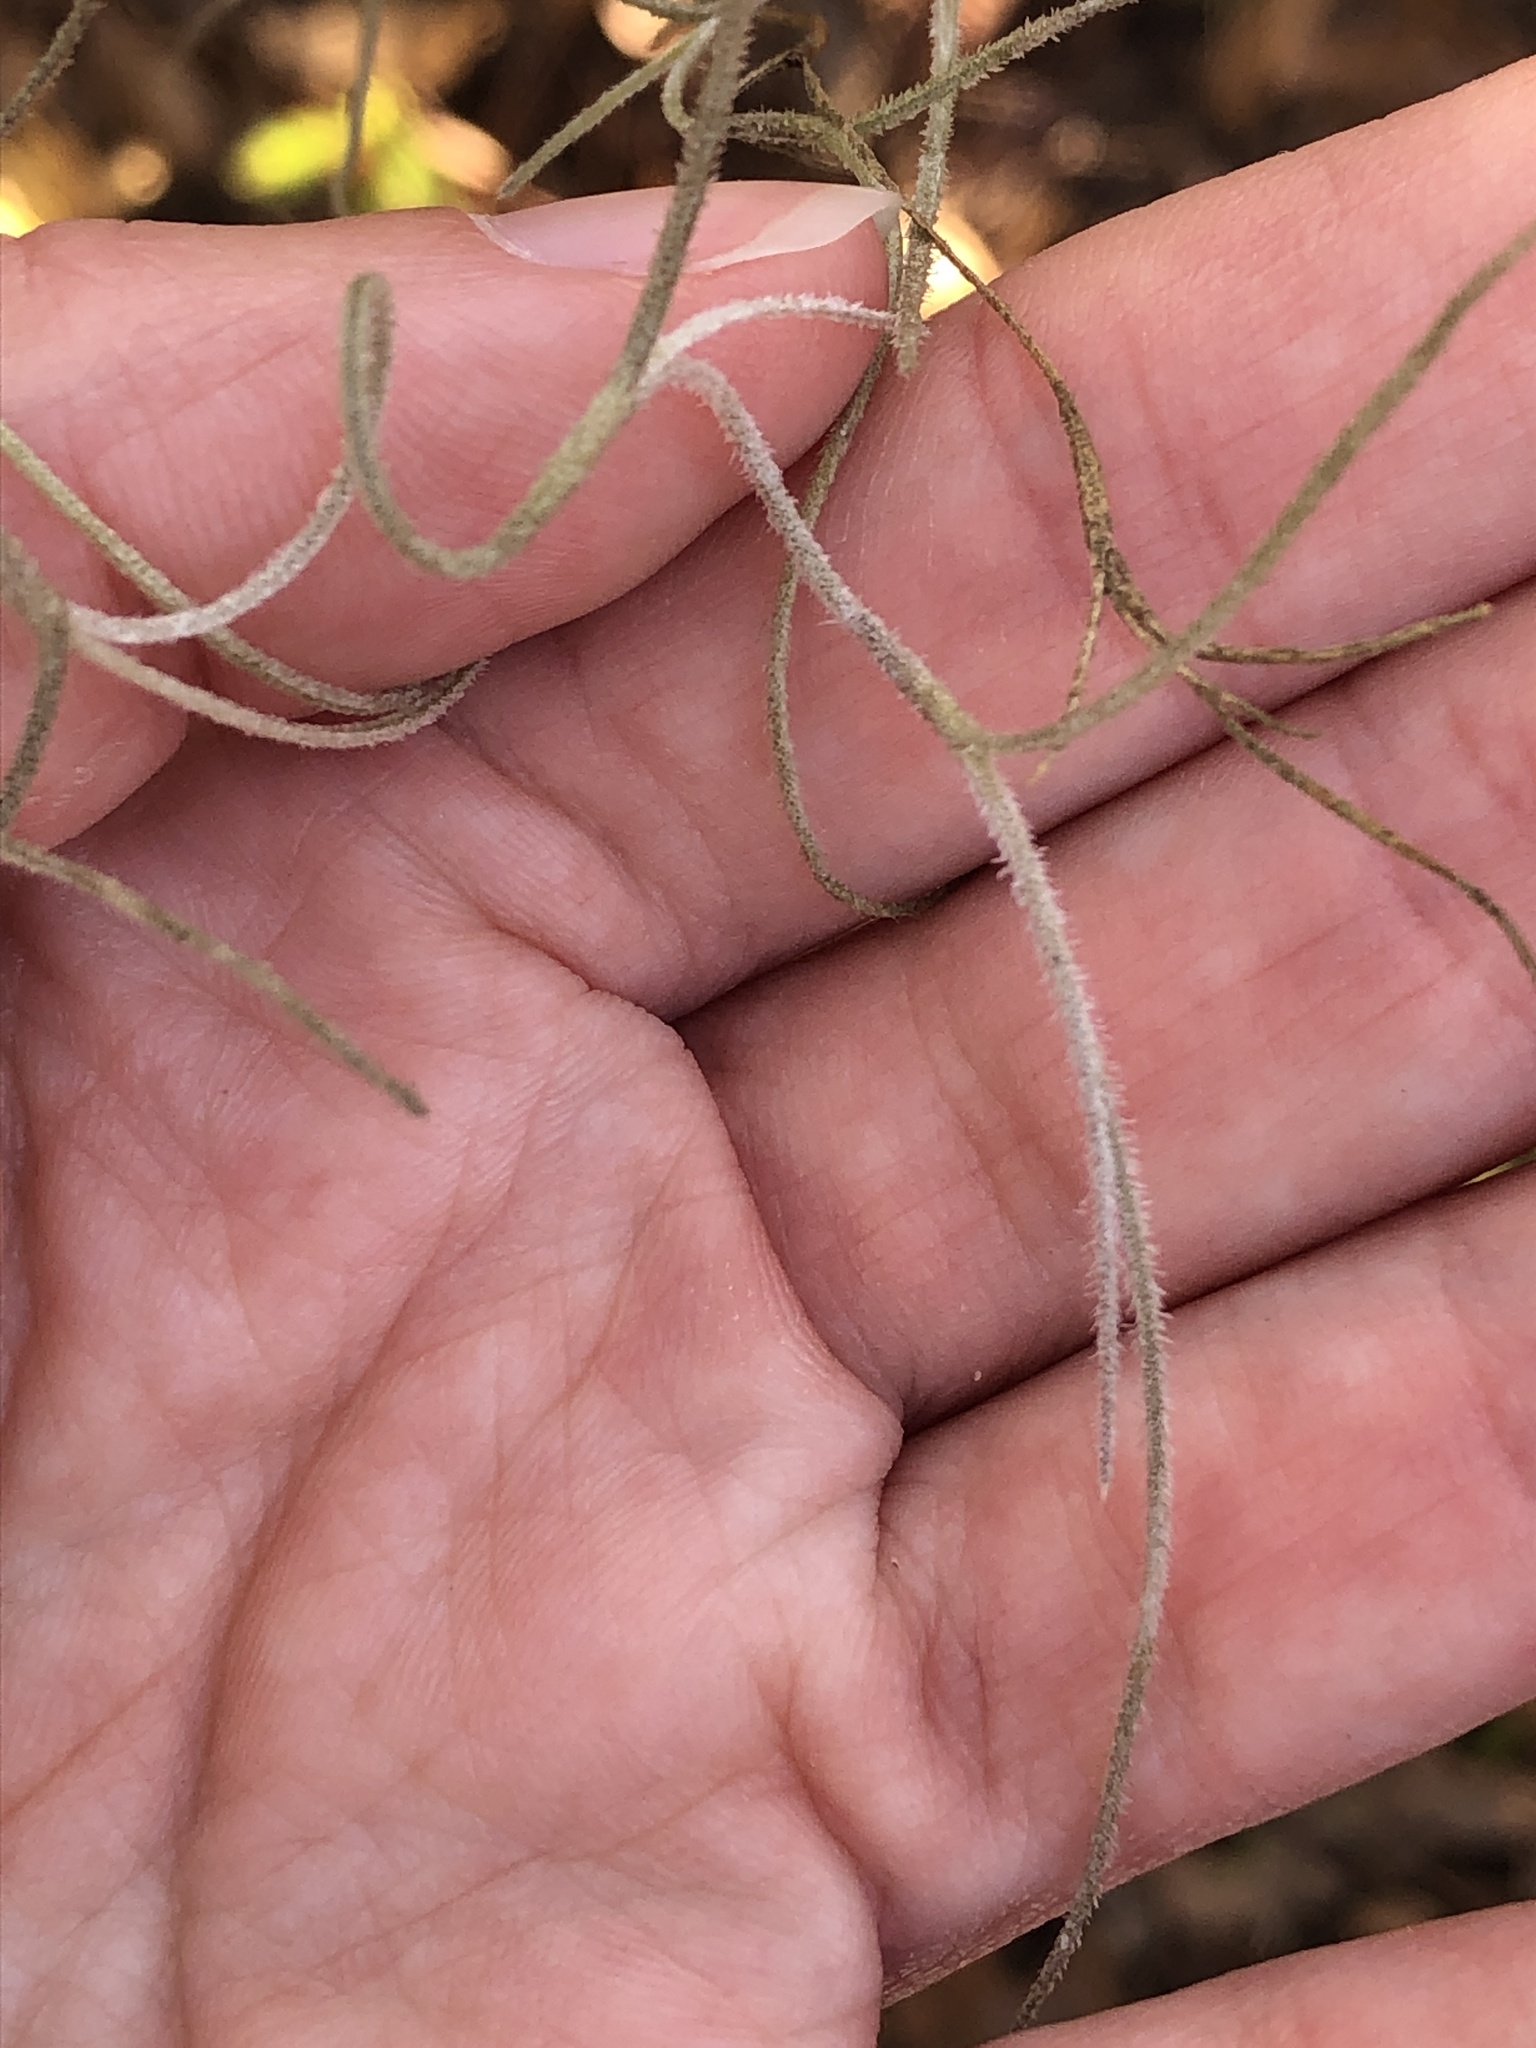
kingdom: Plantae
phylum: Tracheophyta
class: Liliopsida
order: Poales
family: Bromeliaceae
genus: Tillandsia
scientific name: Tillandsia usneoides
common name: Spanish moss
